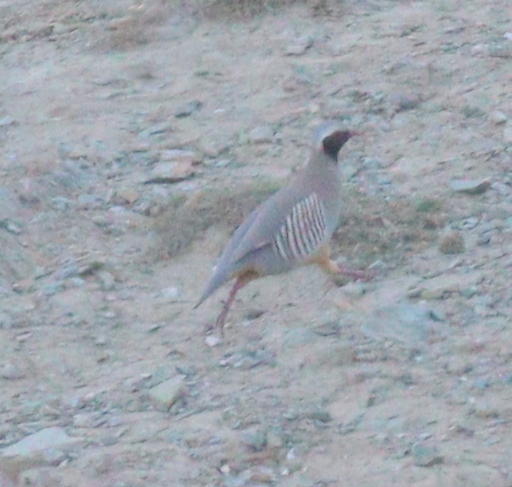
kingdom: Animalia
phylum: Chordata
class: Aves
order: Galliformes
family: Phasianidae
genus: Alectoris
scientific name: Alectoris philbyi
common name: Philby's partridge
